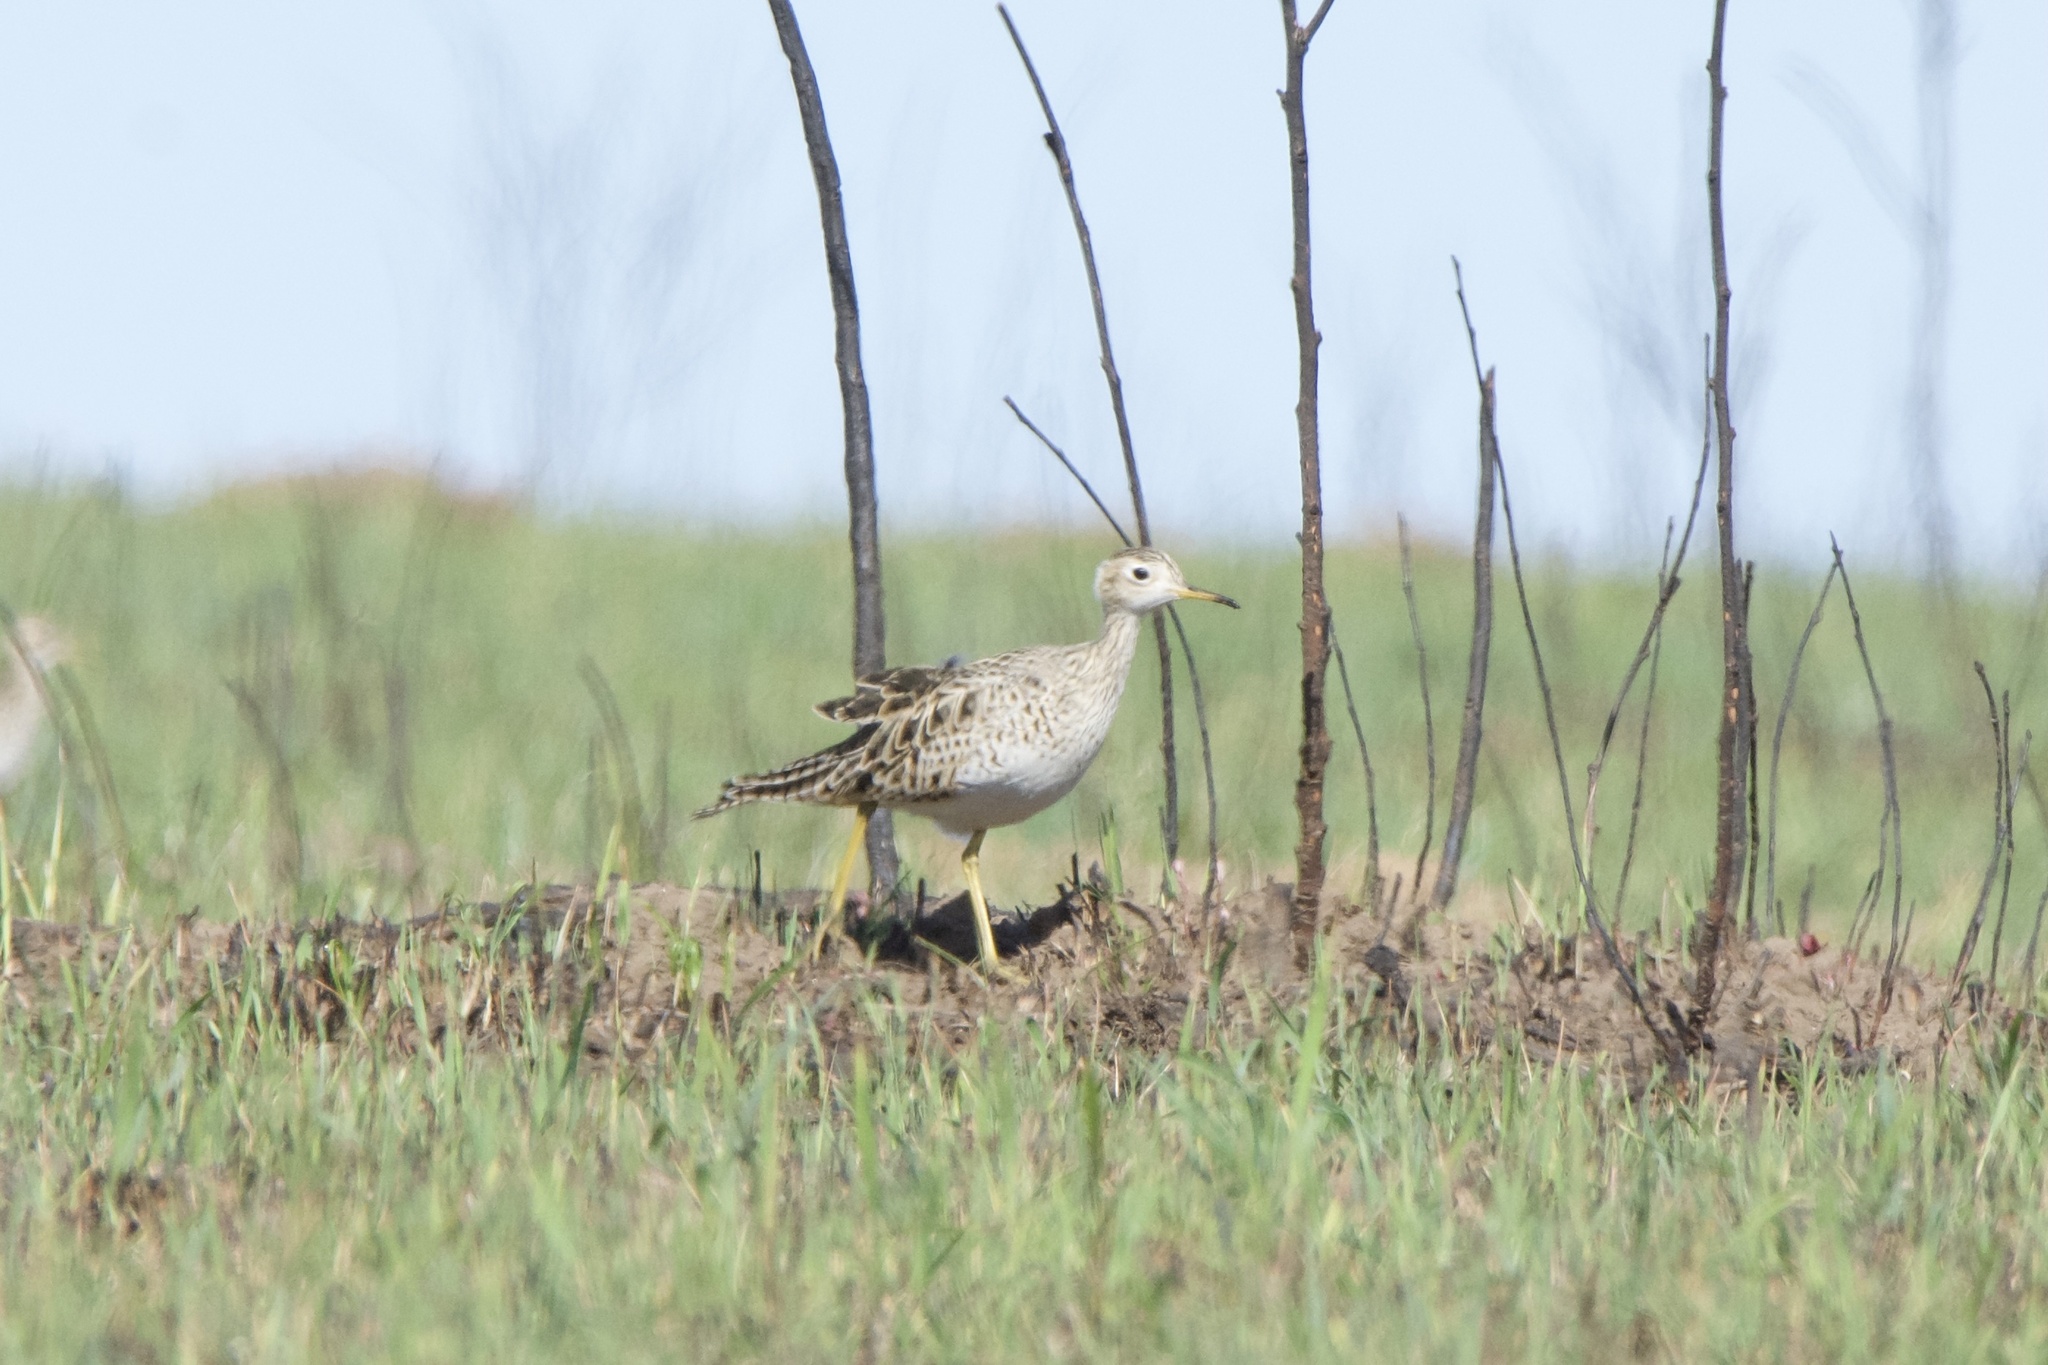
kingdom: Animalia
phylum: Chordata
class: Aves
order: Charadriiformes
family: Scolopacidae
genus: Bartramia
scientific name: Bartramia longicauda
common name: Upland sandpiper
